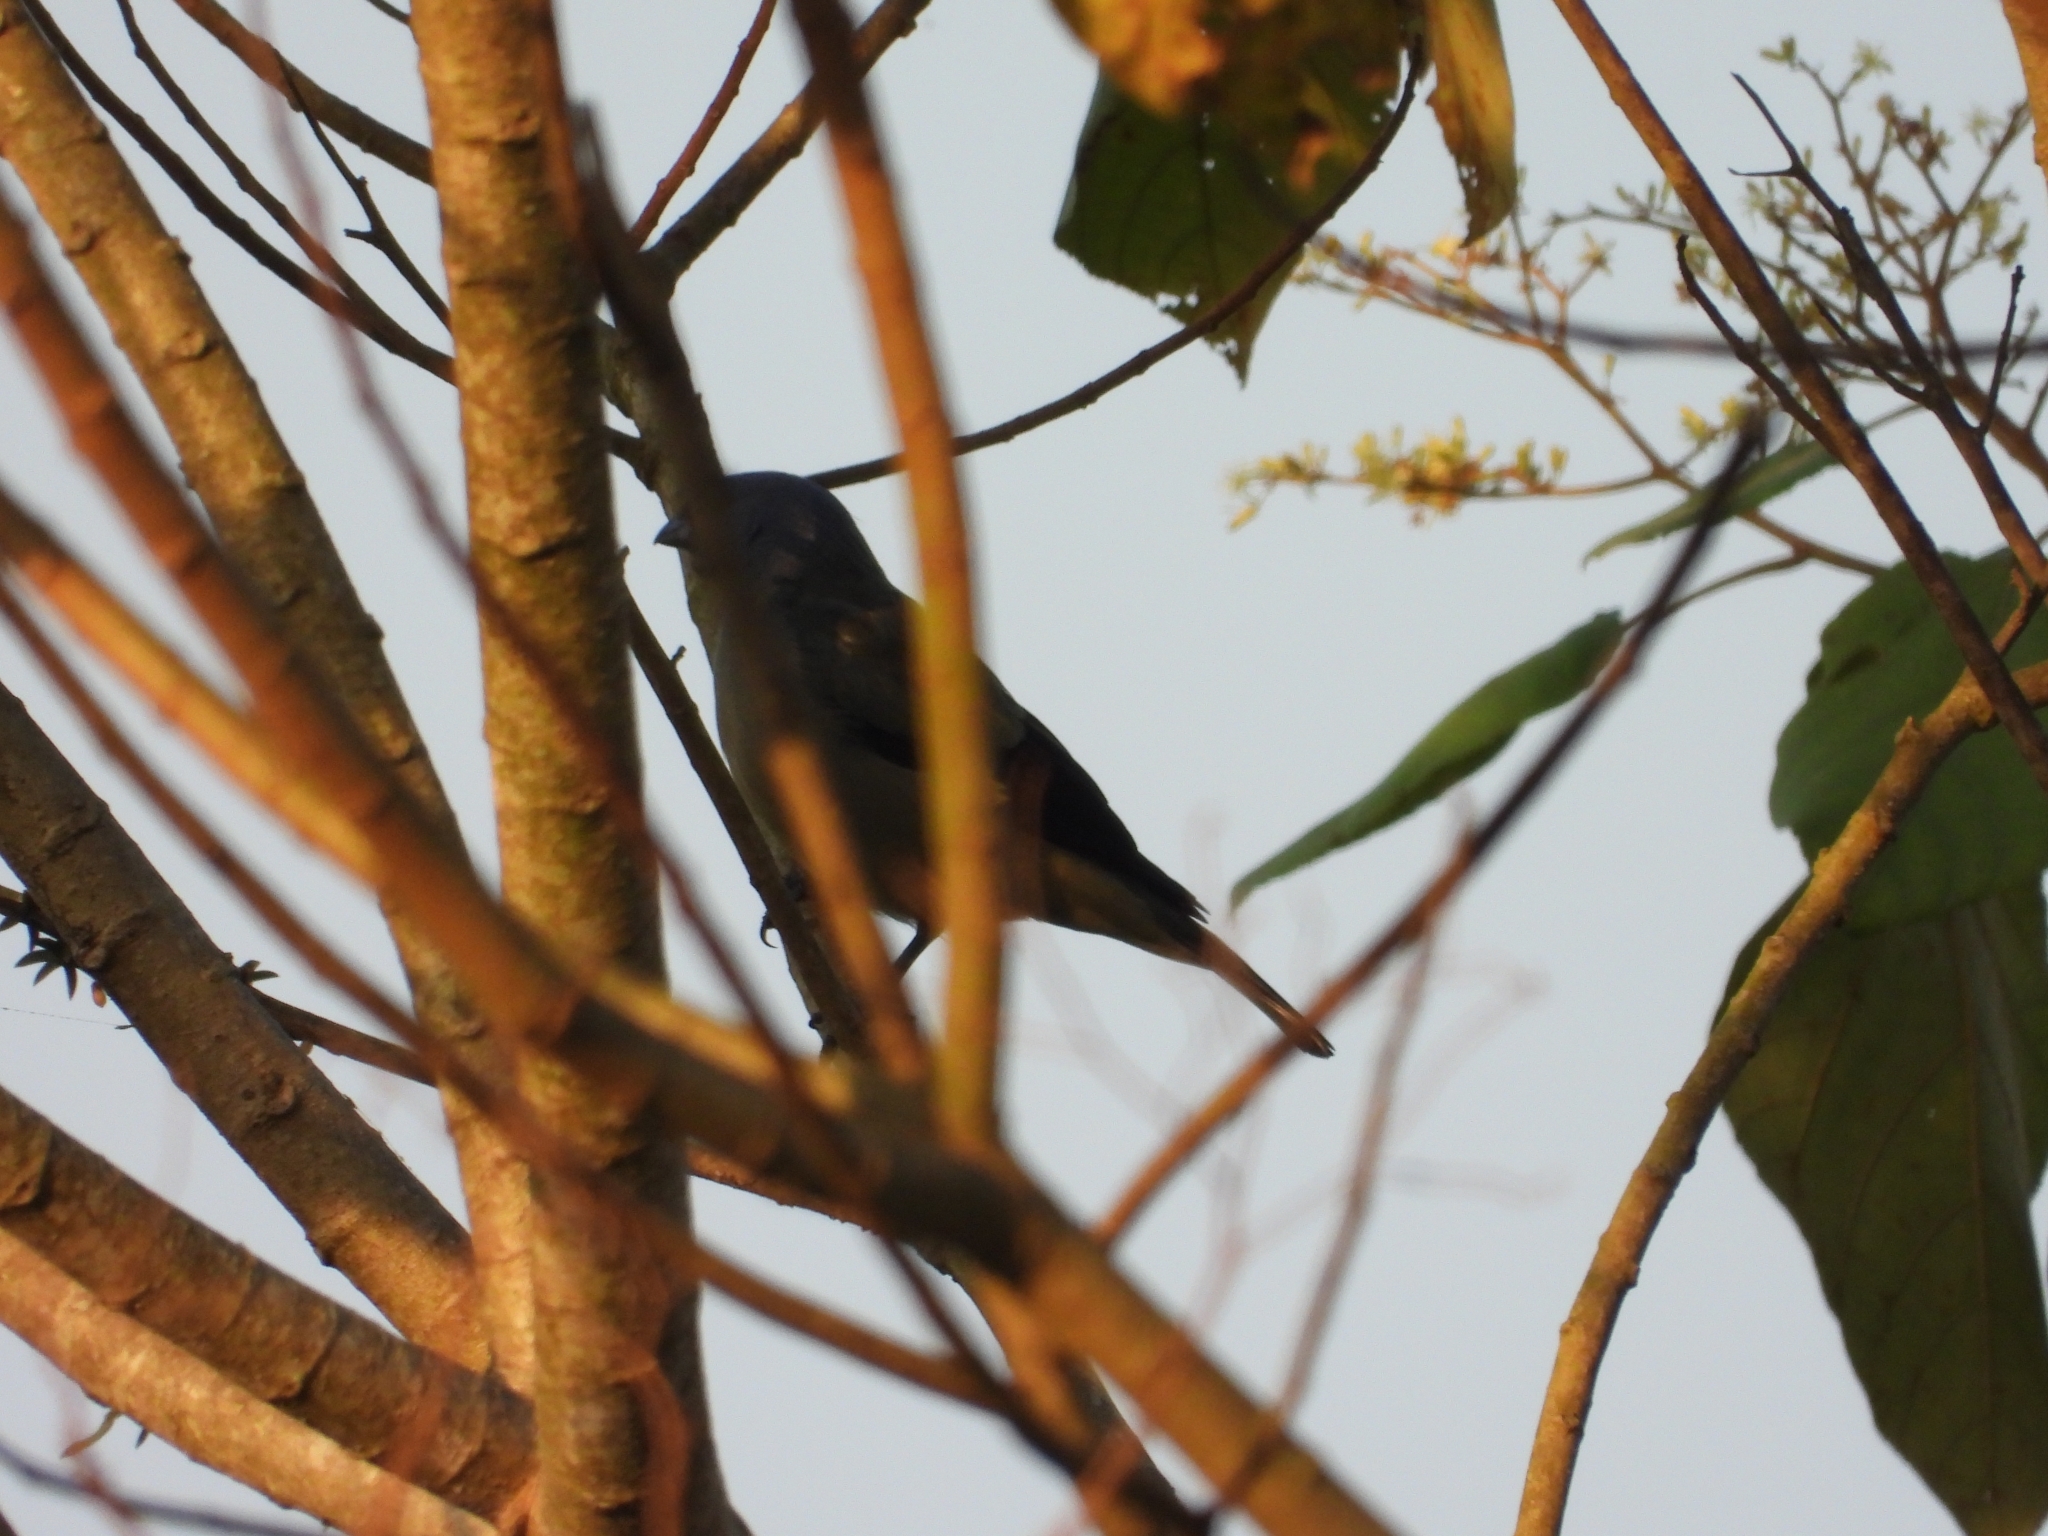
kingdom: Animalia
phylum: Chordata
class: Aves
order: Passeriformes
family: Thraupidae
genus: Thraupis
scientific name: Thraupis abbas
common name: Yellow-winged tanager
